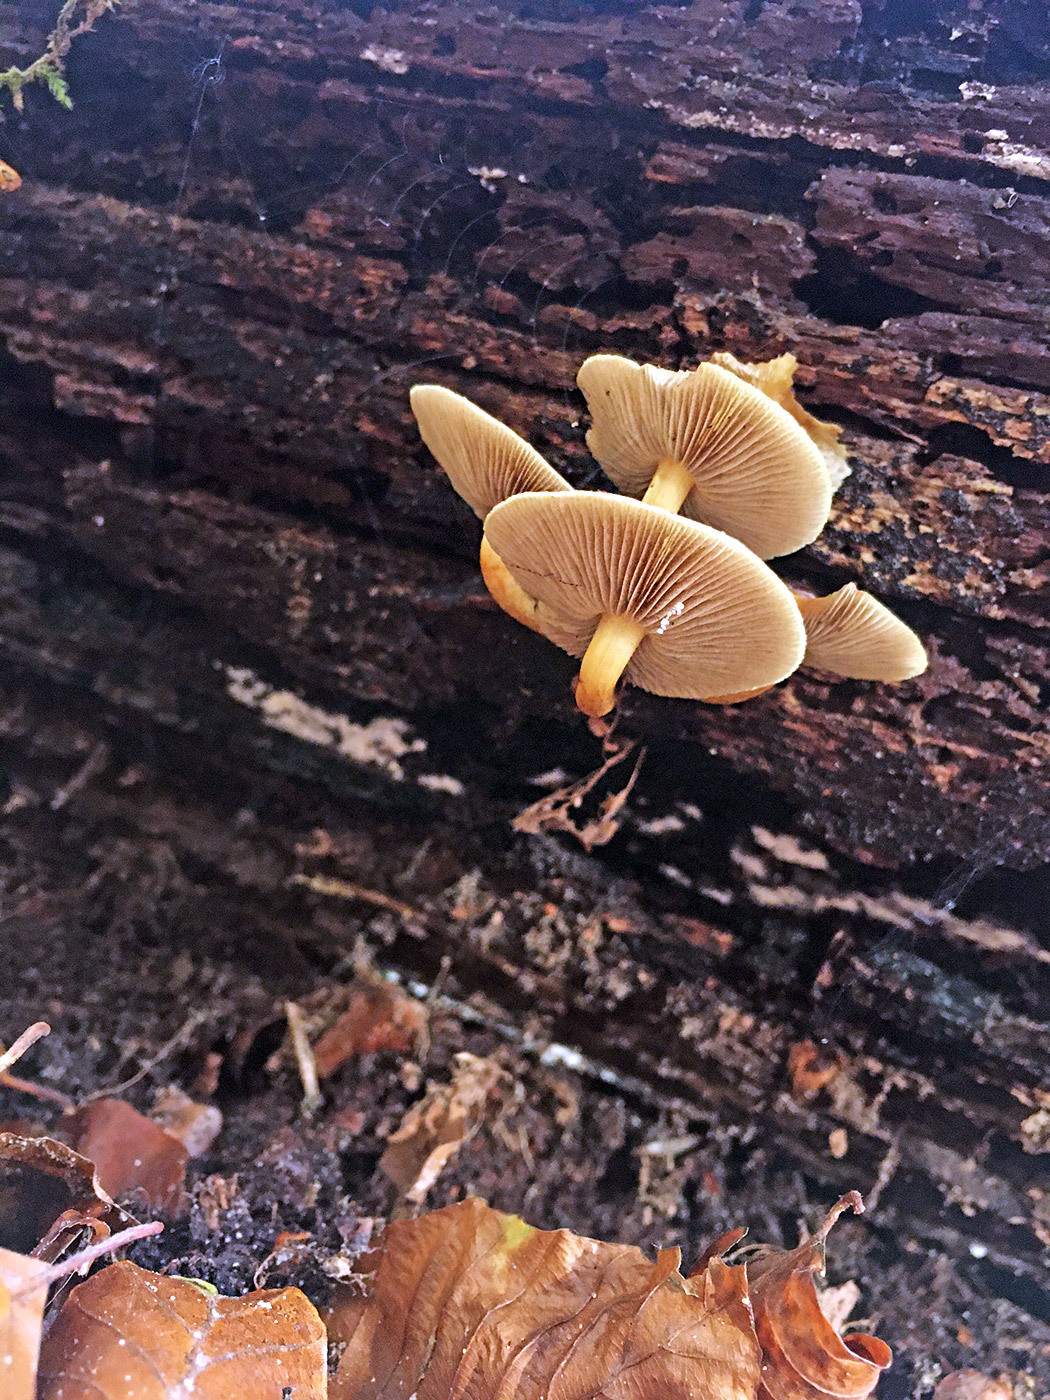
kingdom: Fungi
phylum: Basidiomycota
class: Agaricomycetes
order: Agaricales
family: Strophariaceae
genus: Hypholoma
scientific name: Hypholoma fasciculare
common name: Sulphur tuft
